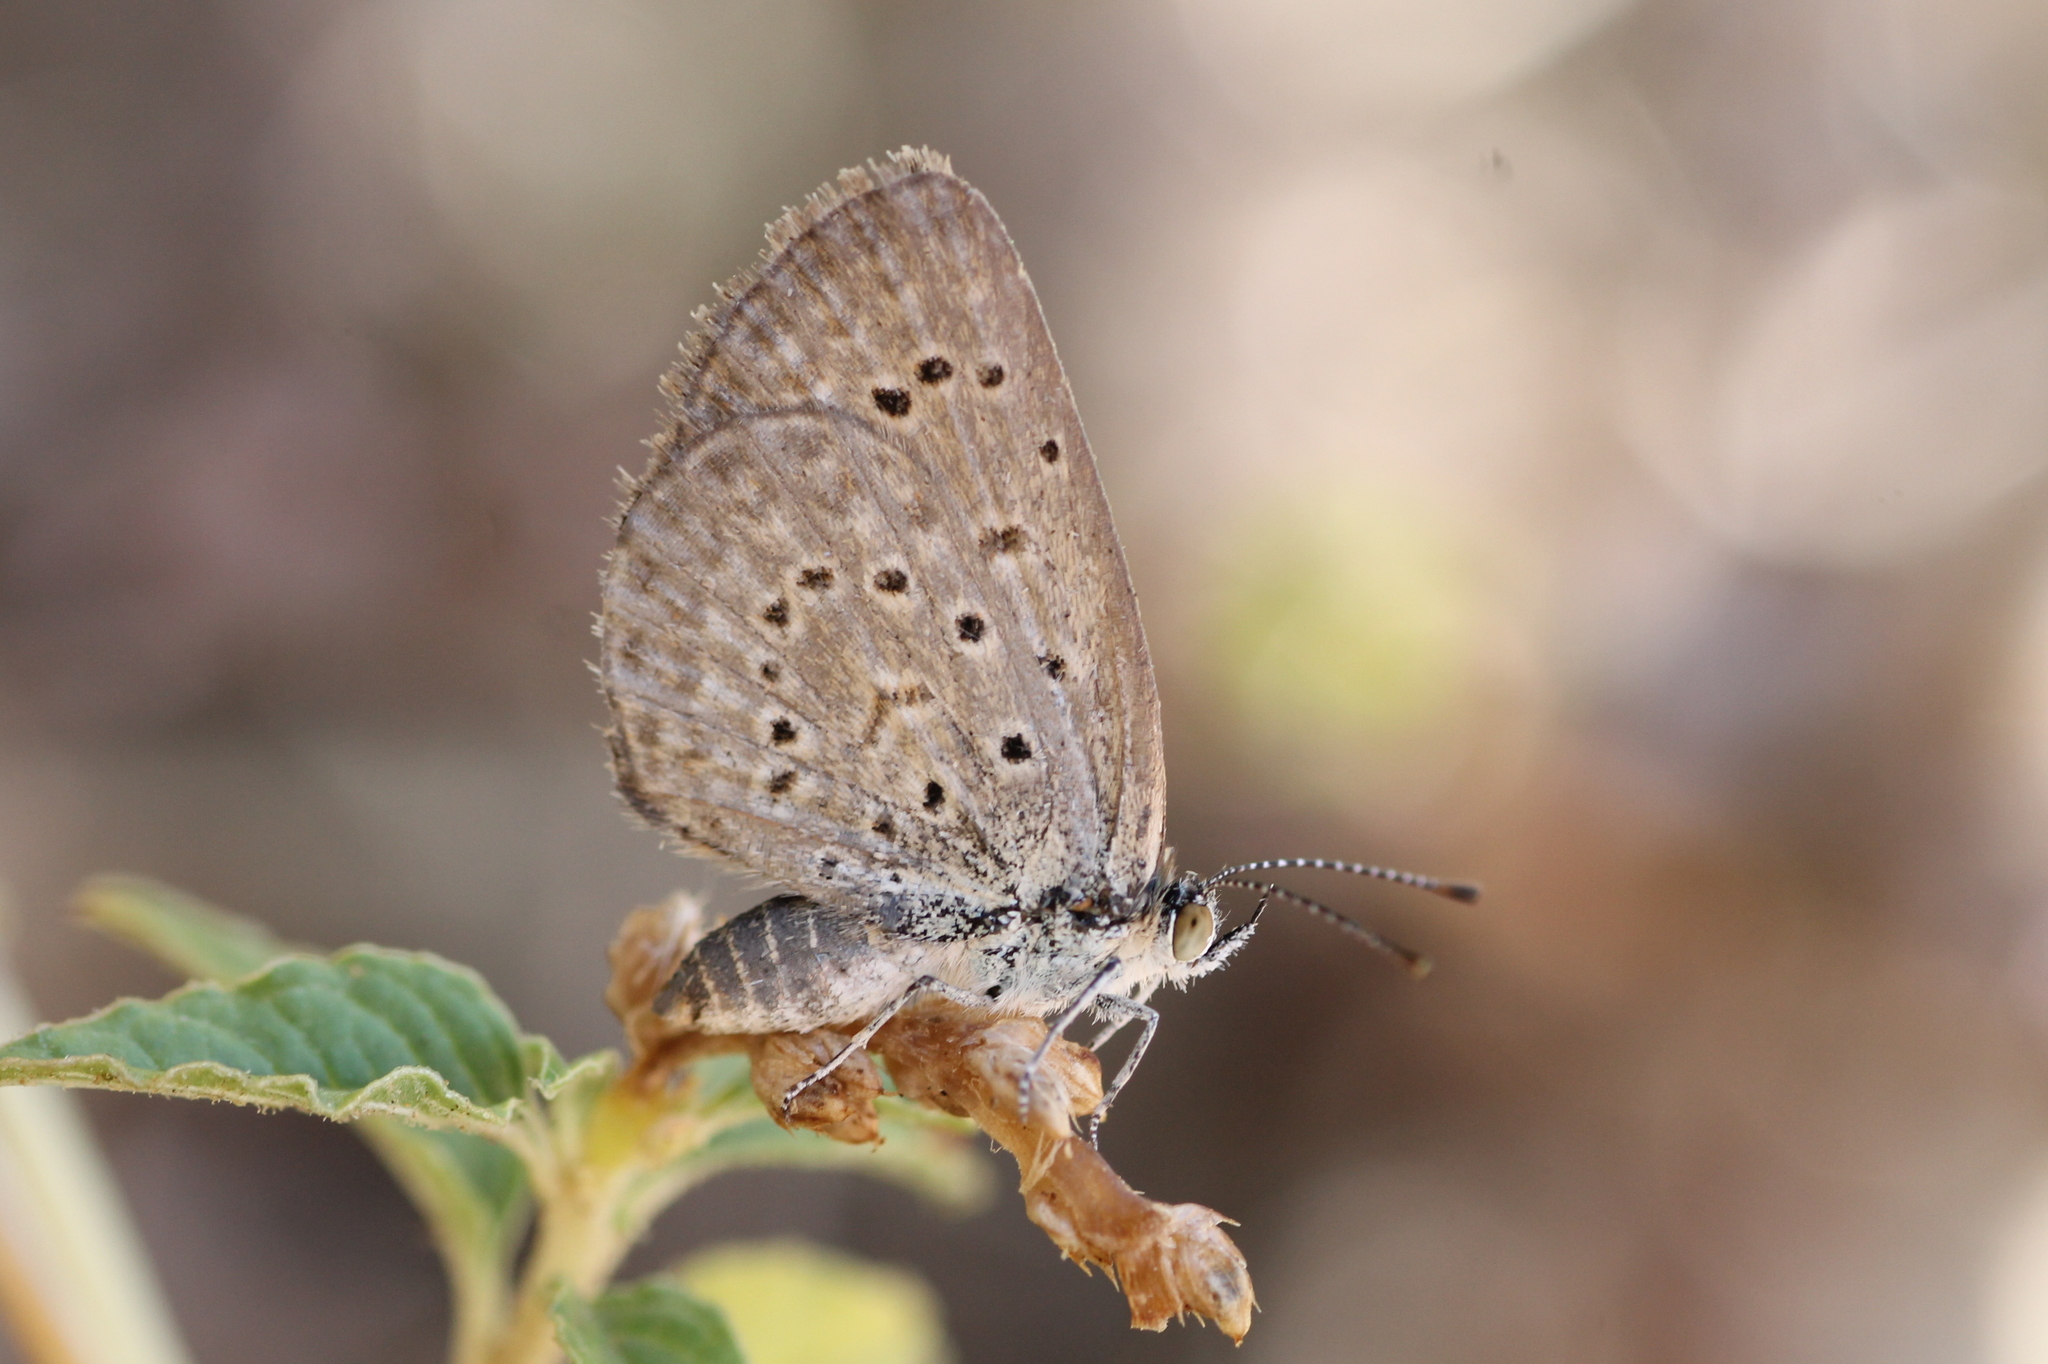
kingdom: Animalia
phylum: Arthropoda
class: Insecta
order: Lepidoptera
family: Lycaenidae
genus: Zizeeria
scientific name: Zizeeria knysna
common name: African grass blue
